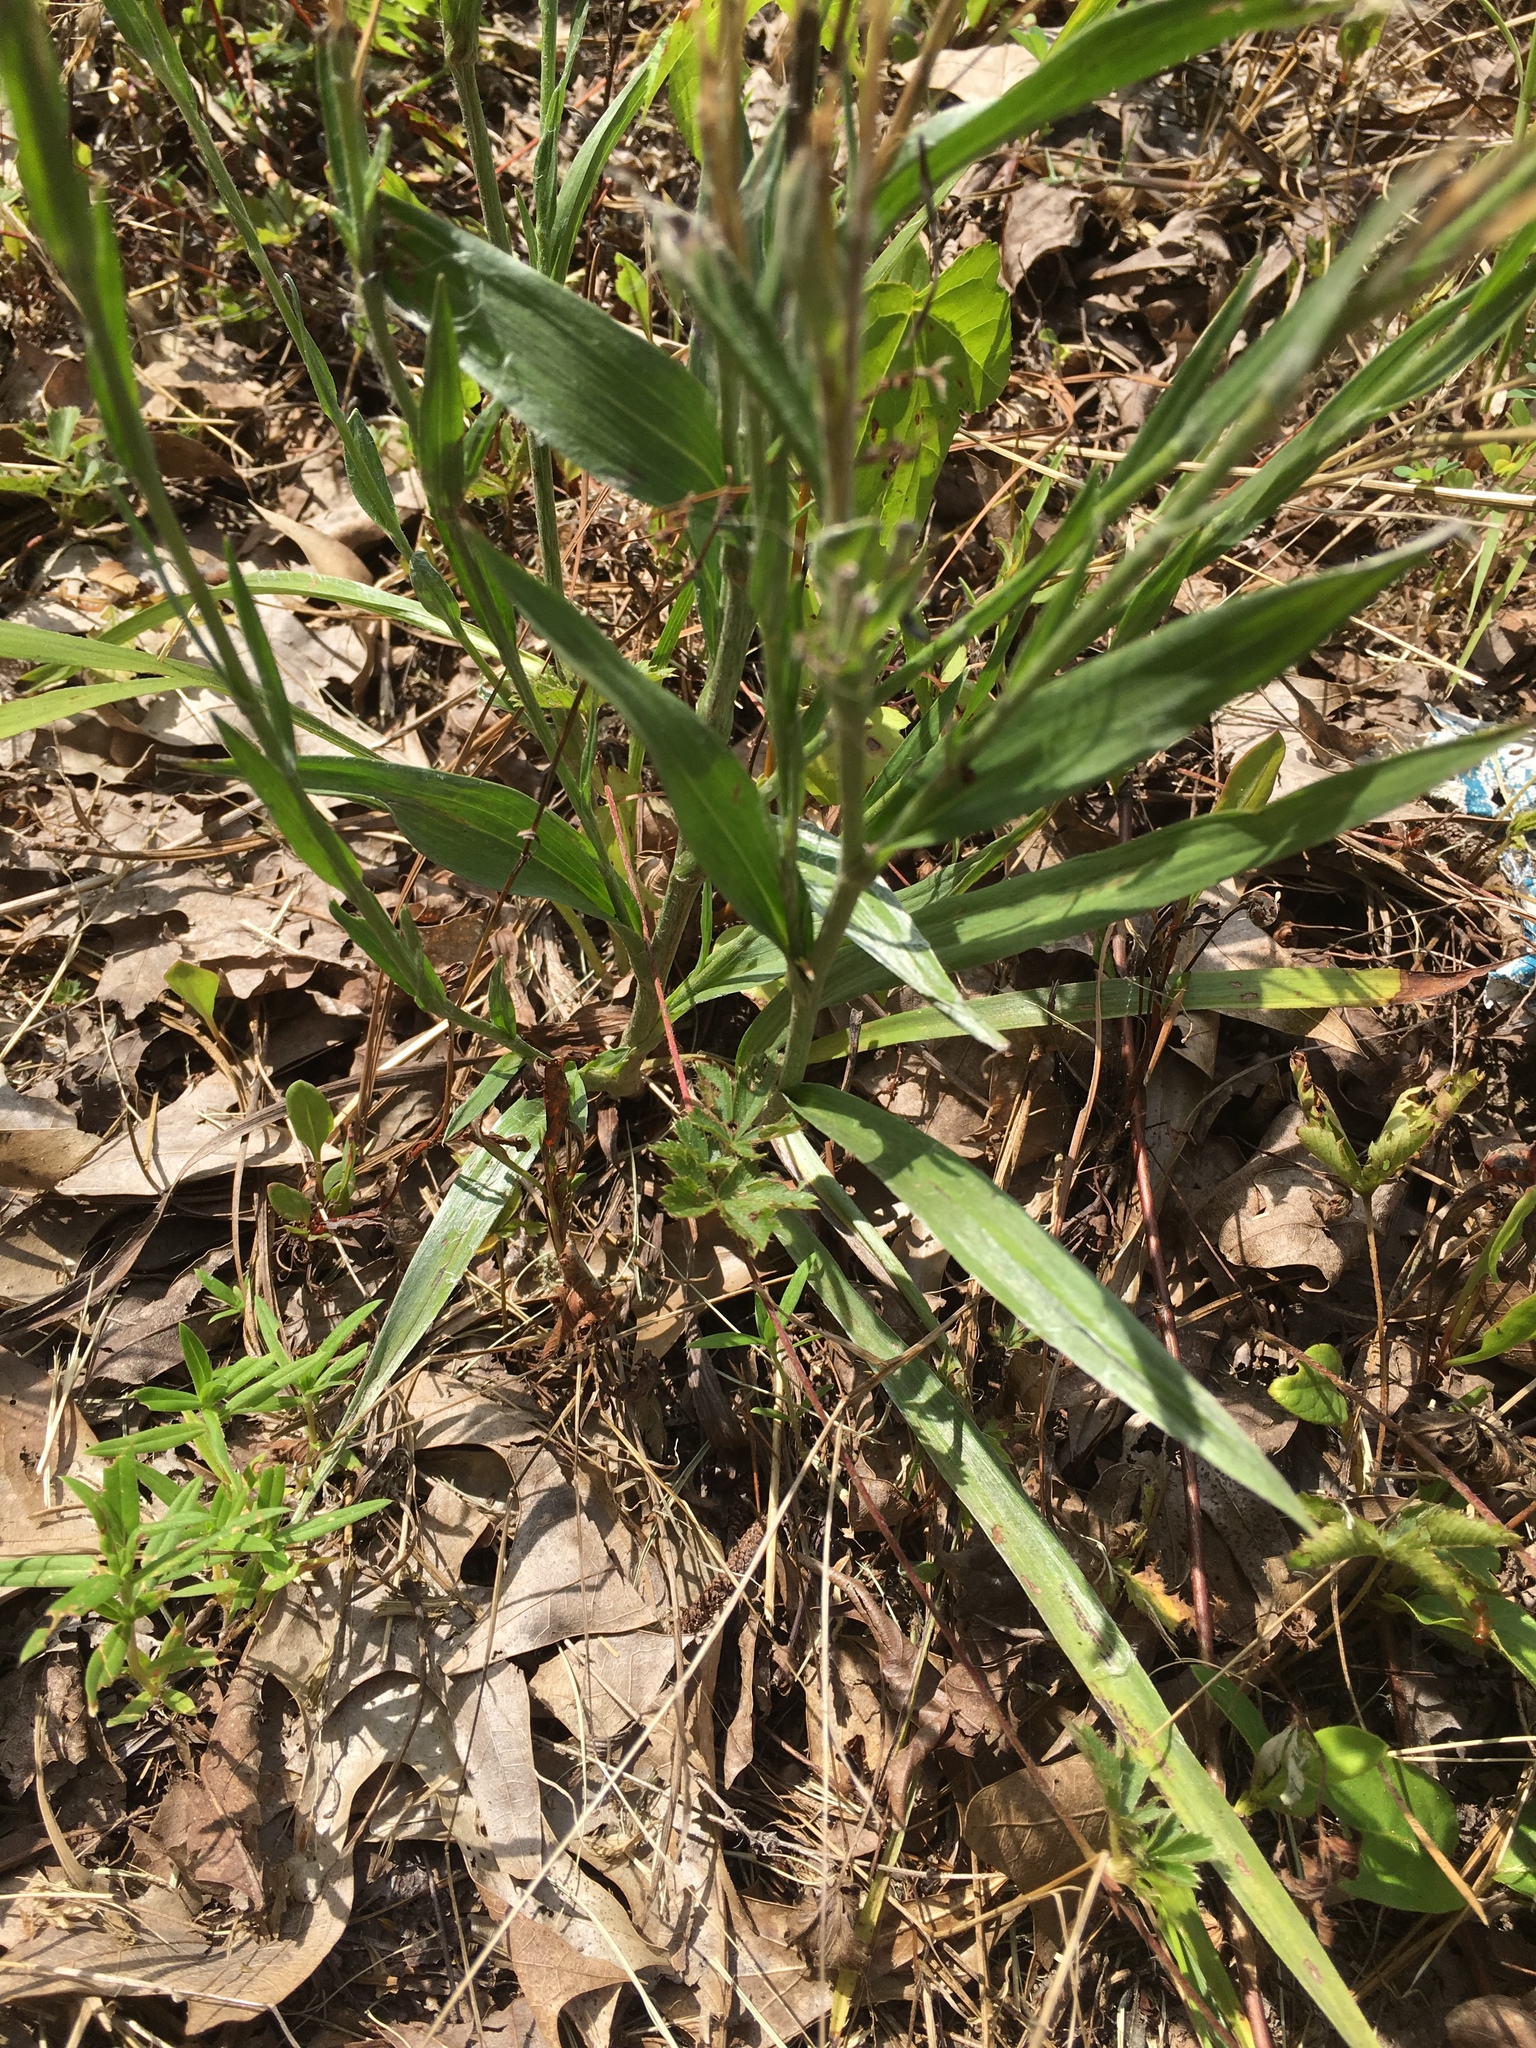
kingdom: Plantae
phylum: Tracheophyta
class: Magnoliopsida
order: Asterales
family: Asteraceae
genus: Pityopsis
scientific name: Pityopsis aspera
